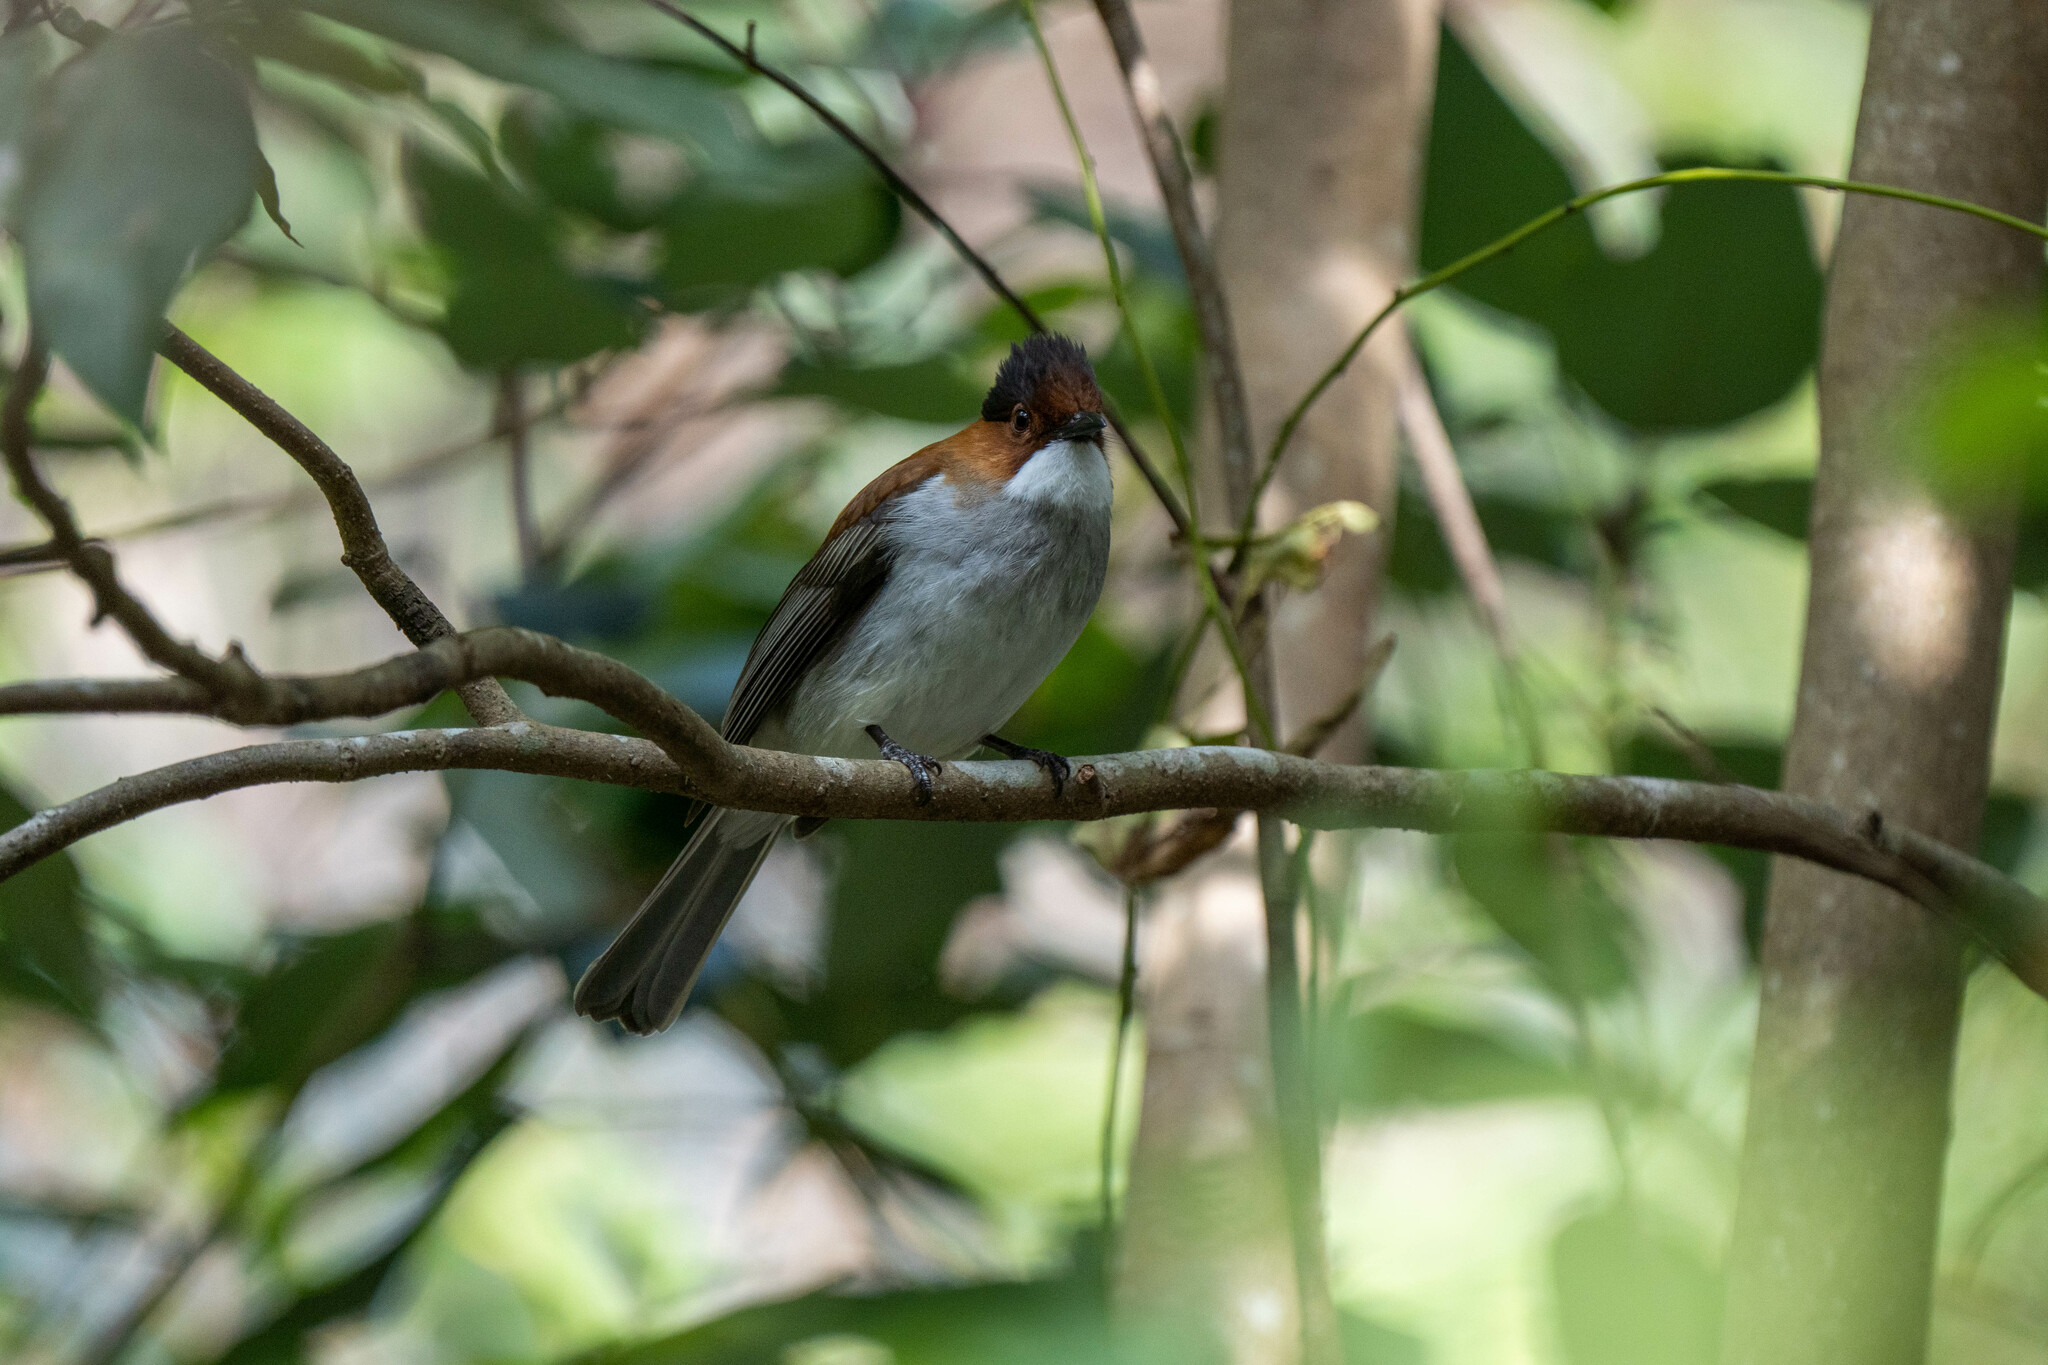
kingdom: Animalia
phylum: Chordata
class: Aves
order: Passeriformes
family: Pycnonotidae
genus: Hemixos
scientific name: Hemixos castanonotus
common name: Chestnut bulbul
